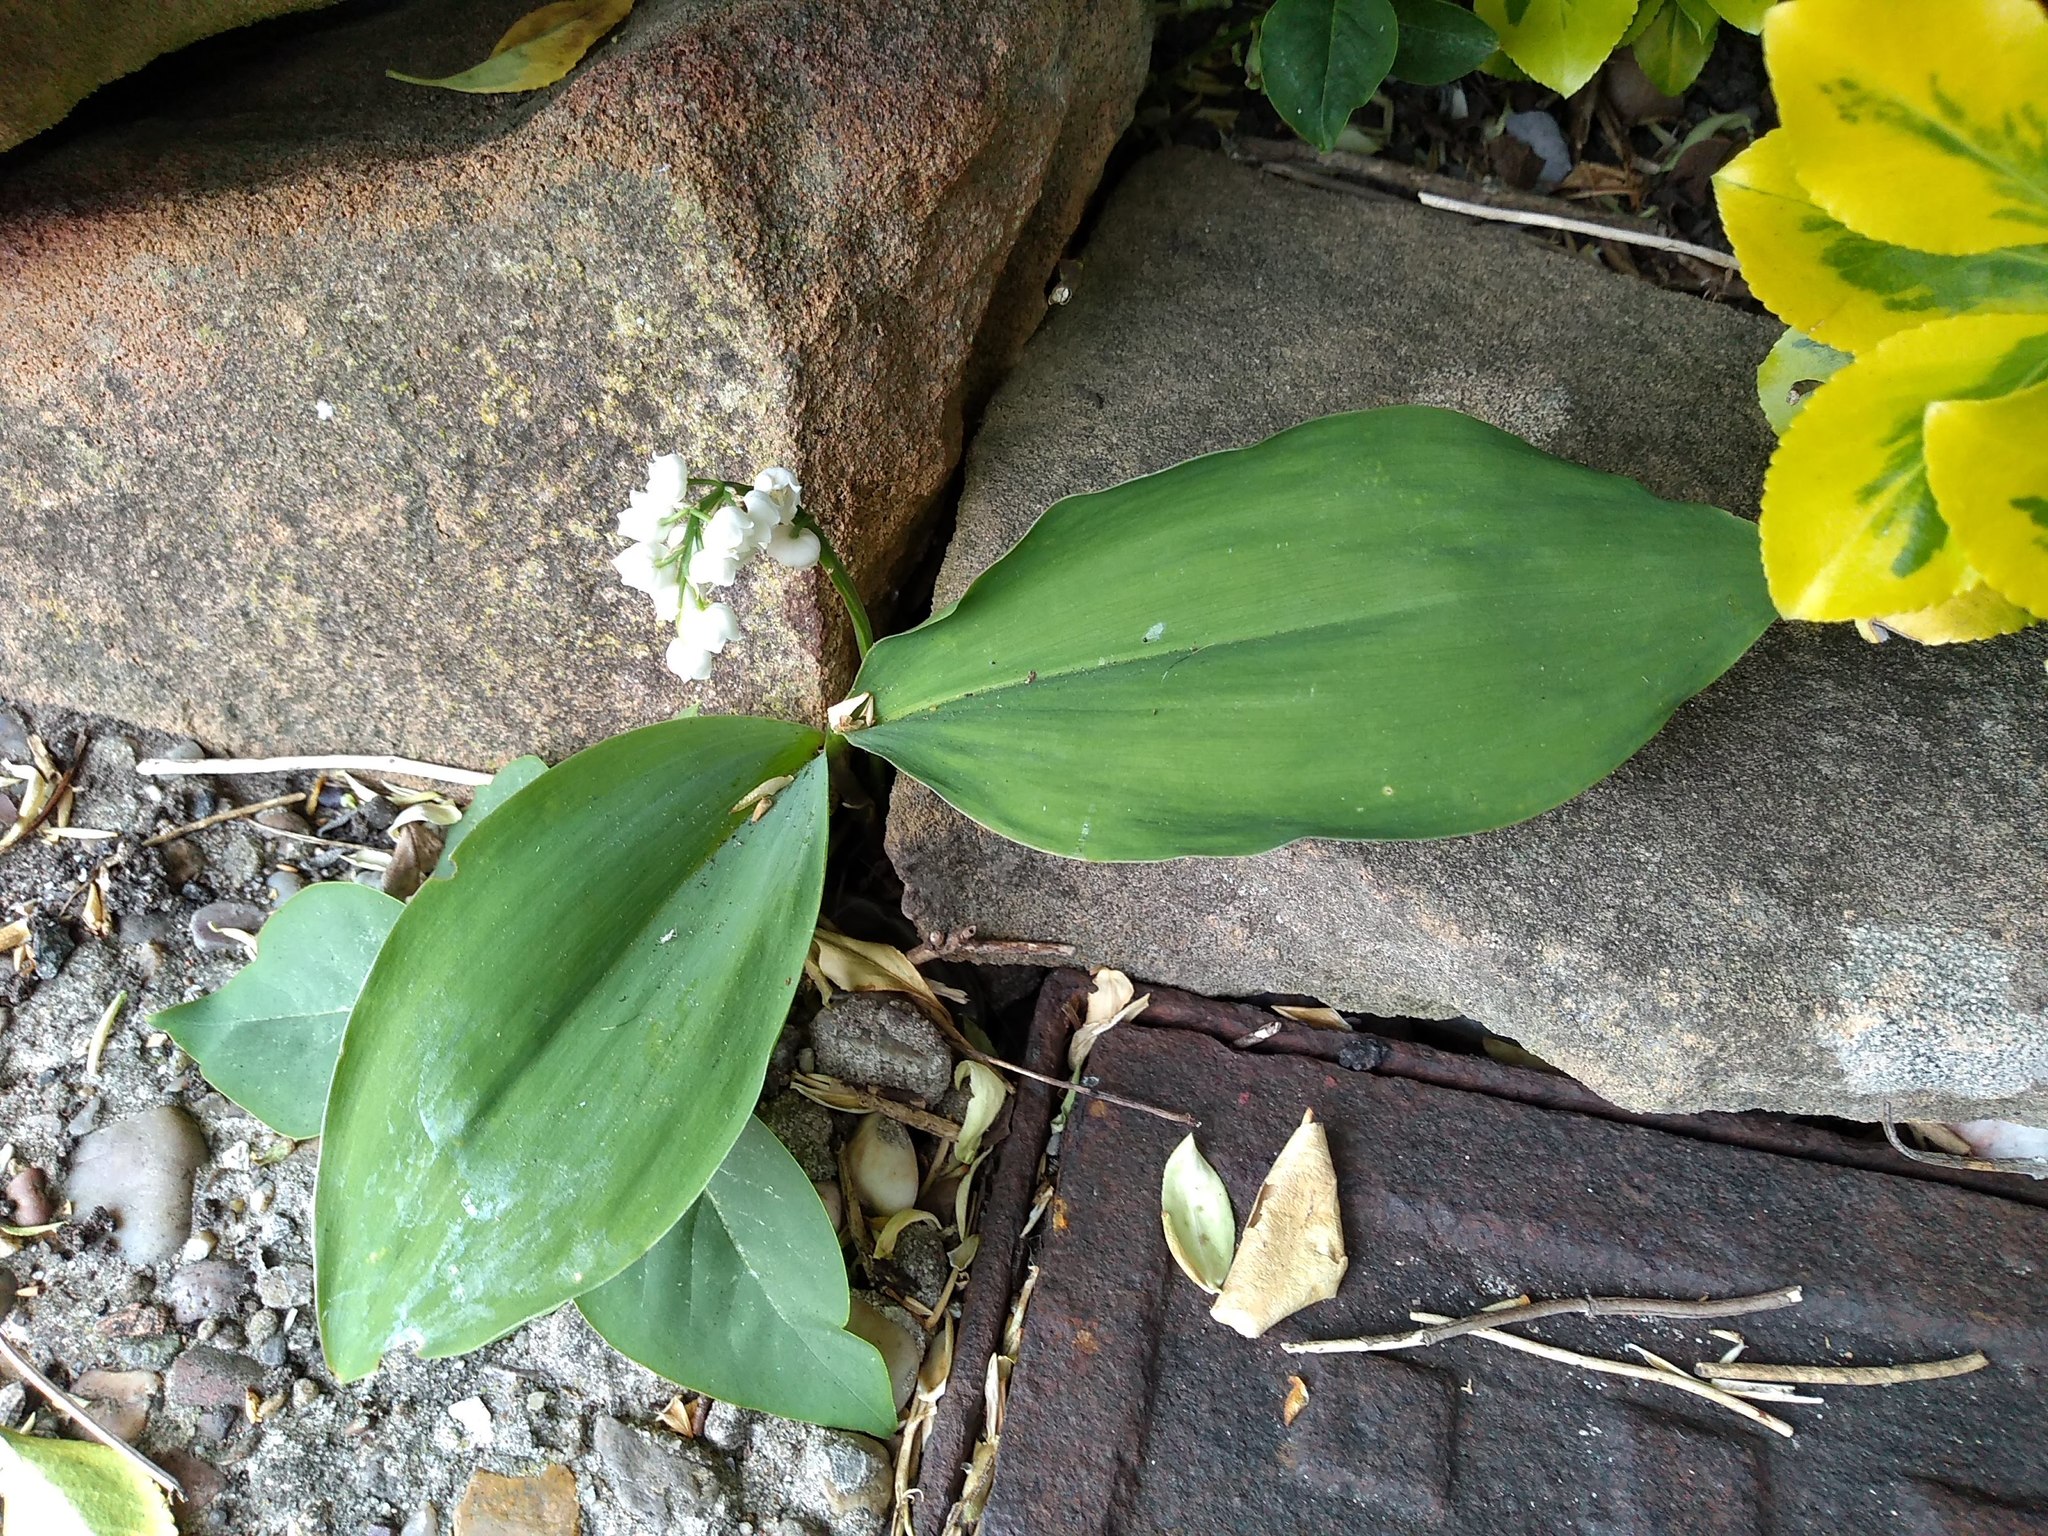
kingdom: Plantae
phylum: Tracheophyta
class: Liliopsida
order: Asparagales
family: Asparagaceae
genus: Convallaria
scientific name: Convallaria majalis
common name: Lily-of-the-valley
